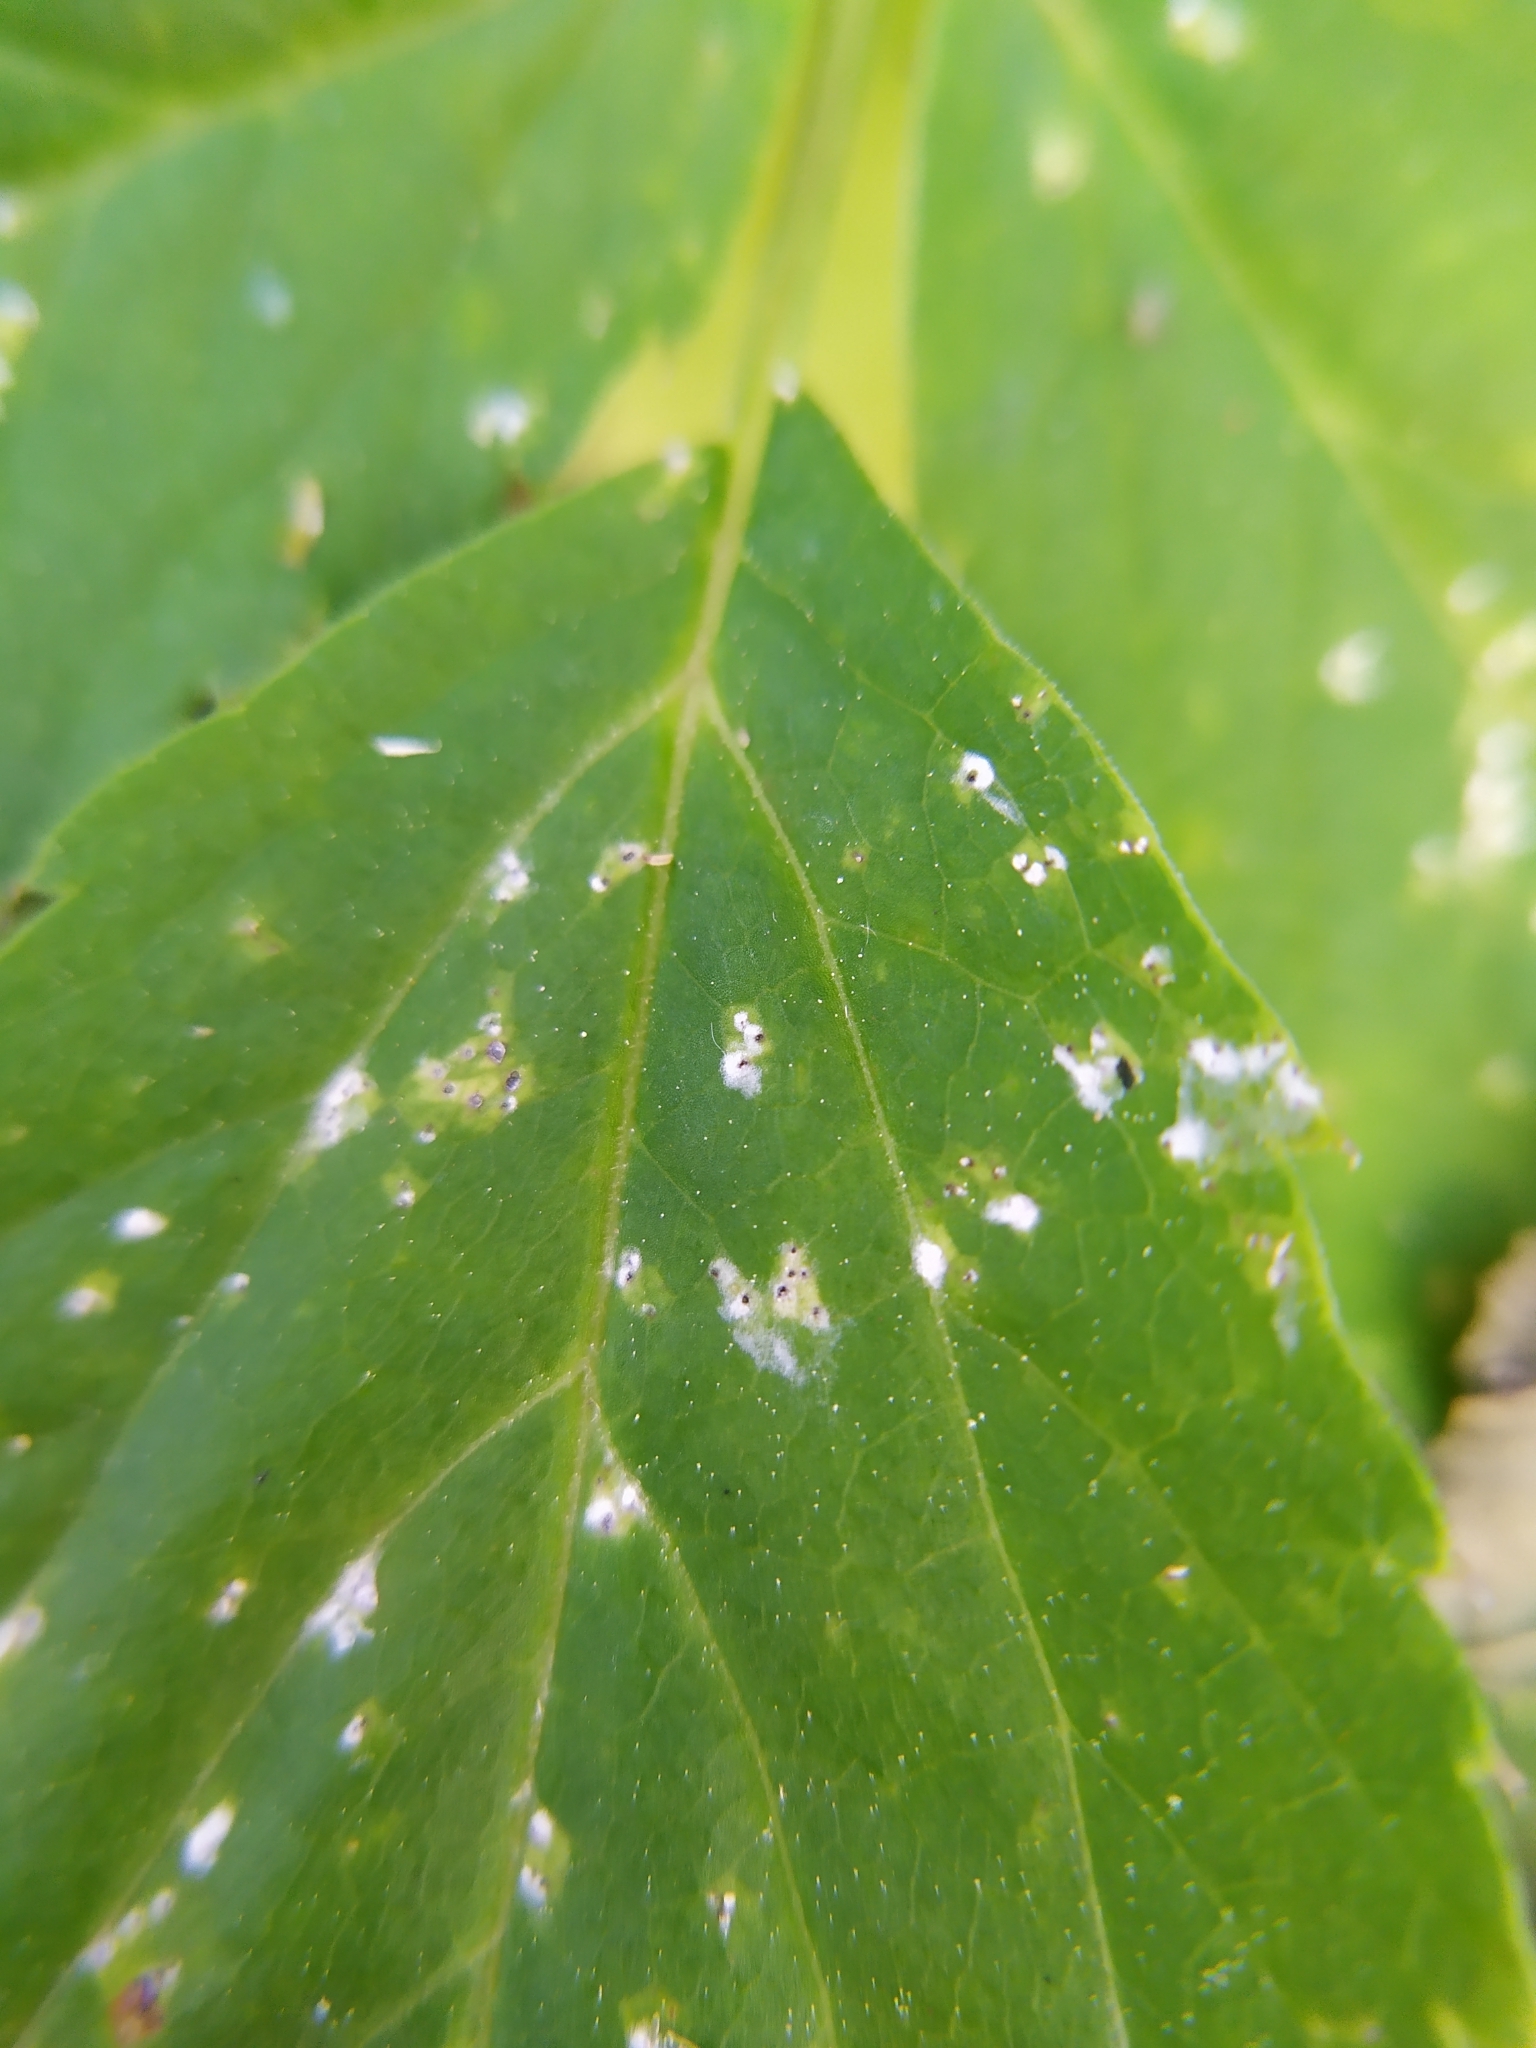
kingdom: Fungi
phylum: Ascomycota
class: Dothideomycetes
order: Mycosphaerellales
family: Mycosphaerellaceae
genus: Mycosphaerella
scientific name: Mycosphaerella podagrariae
